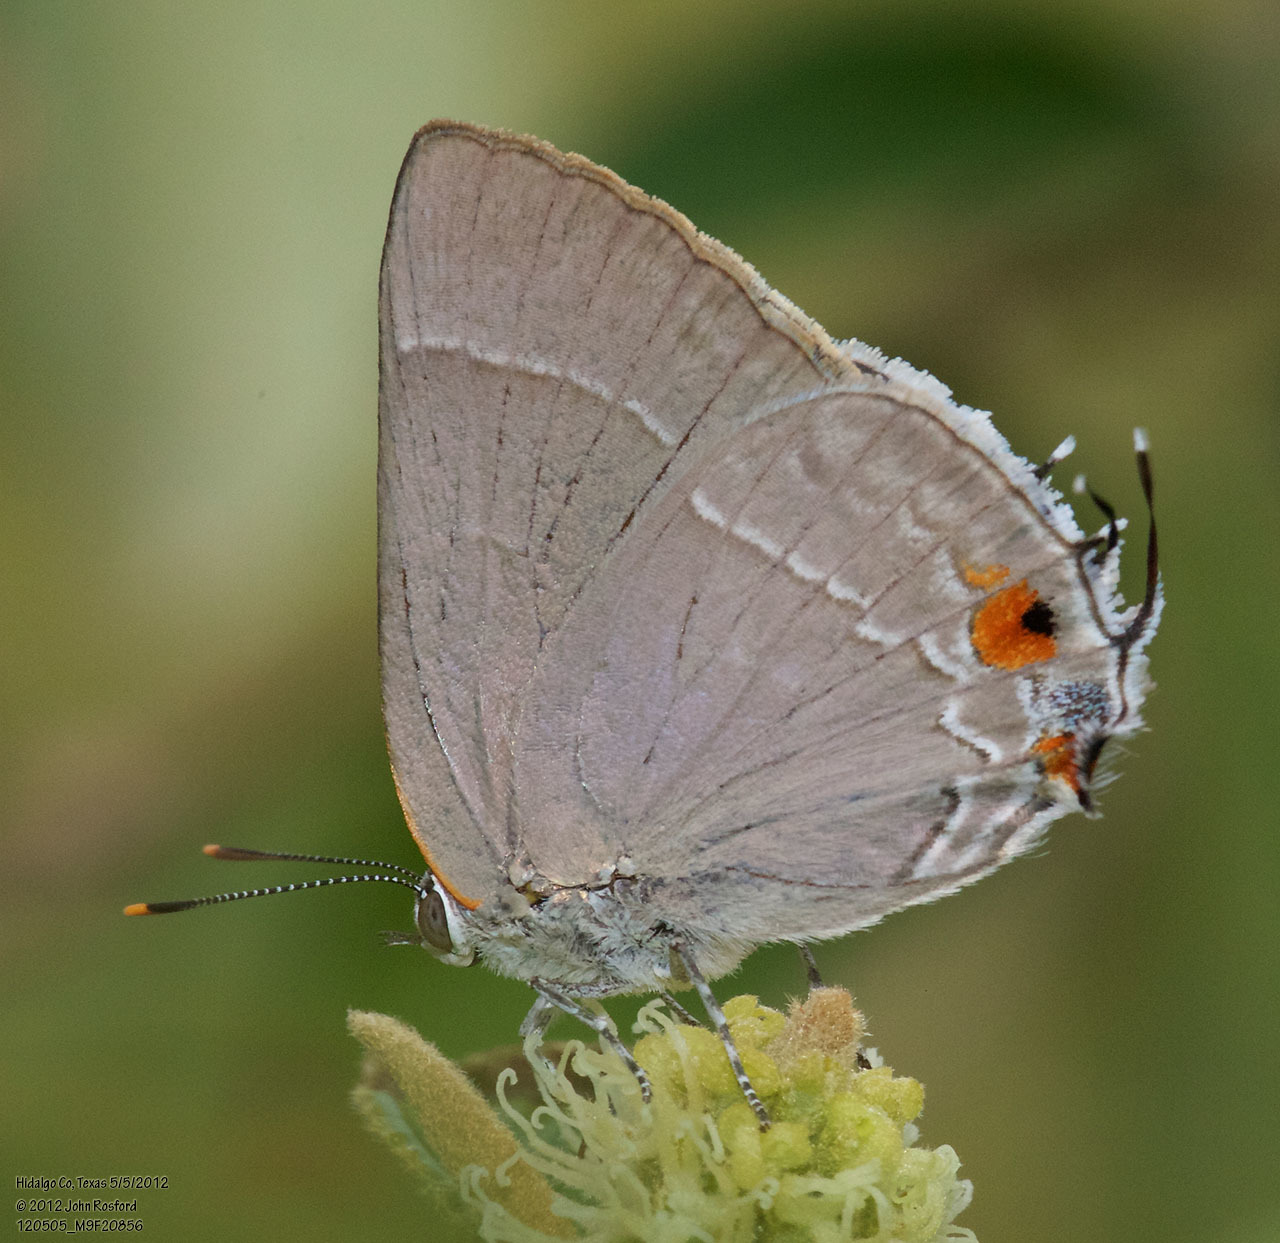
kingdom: Animalia
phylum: Arthropoda
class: Insecta
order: Lepidoptera
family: Lycaenidae
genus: Thecla
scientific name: Thecla marius
